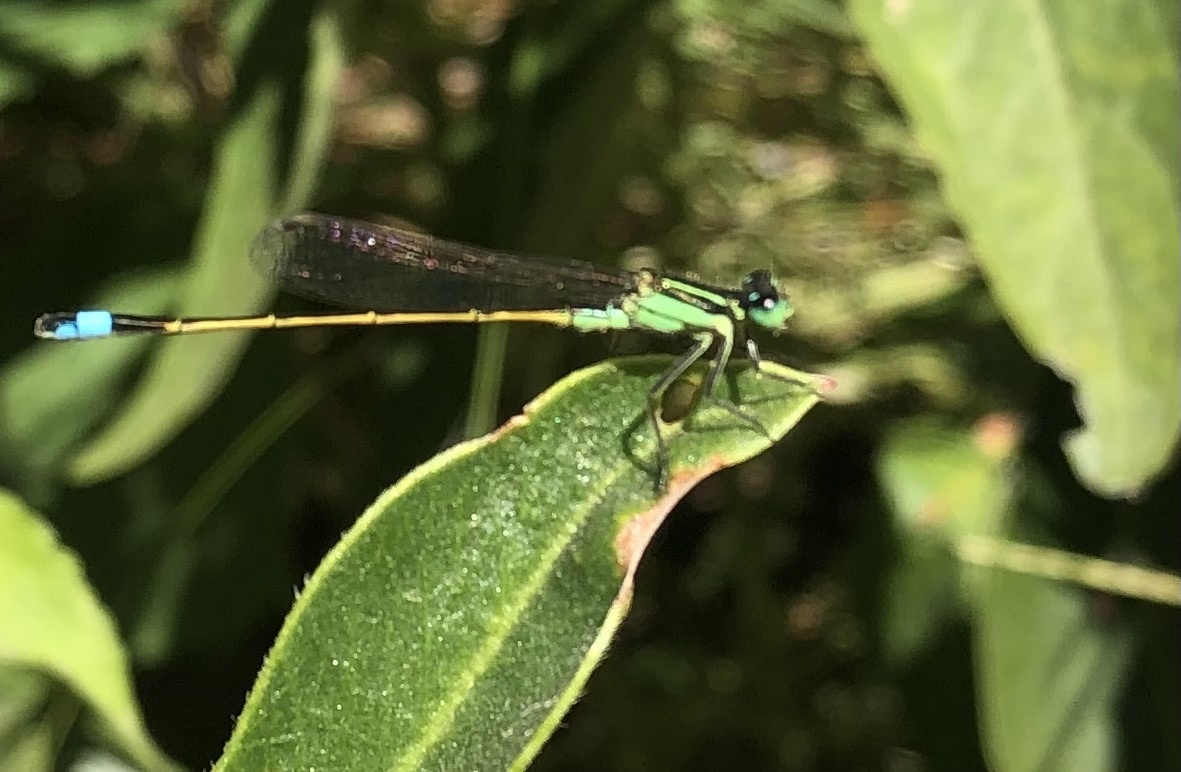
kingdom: Animalia
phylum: Arthropoda
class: Insecta
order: Odonata
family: Coenagrionidae
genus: Ischnura
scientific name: Ischnura ramburii
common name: Rambur's forktail
